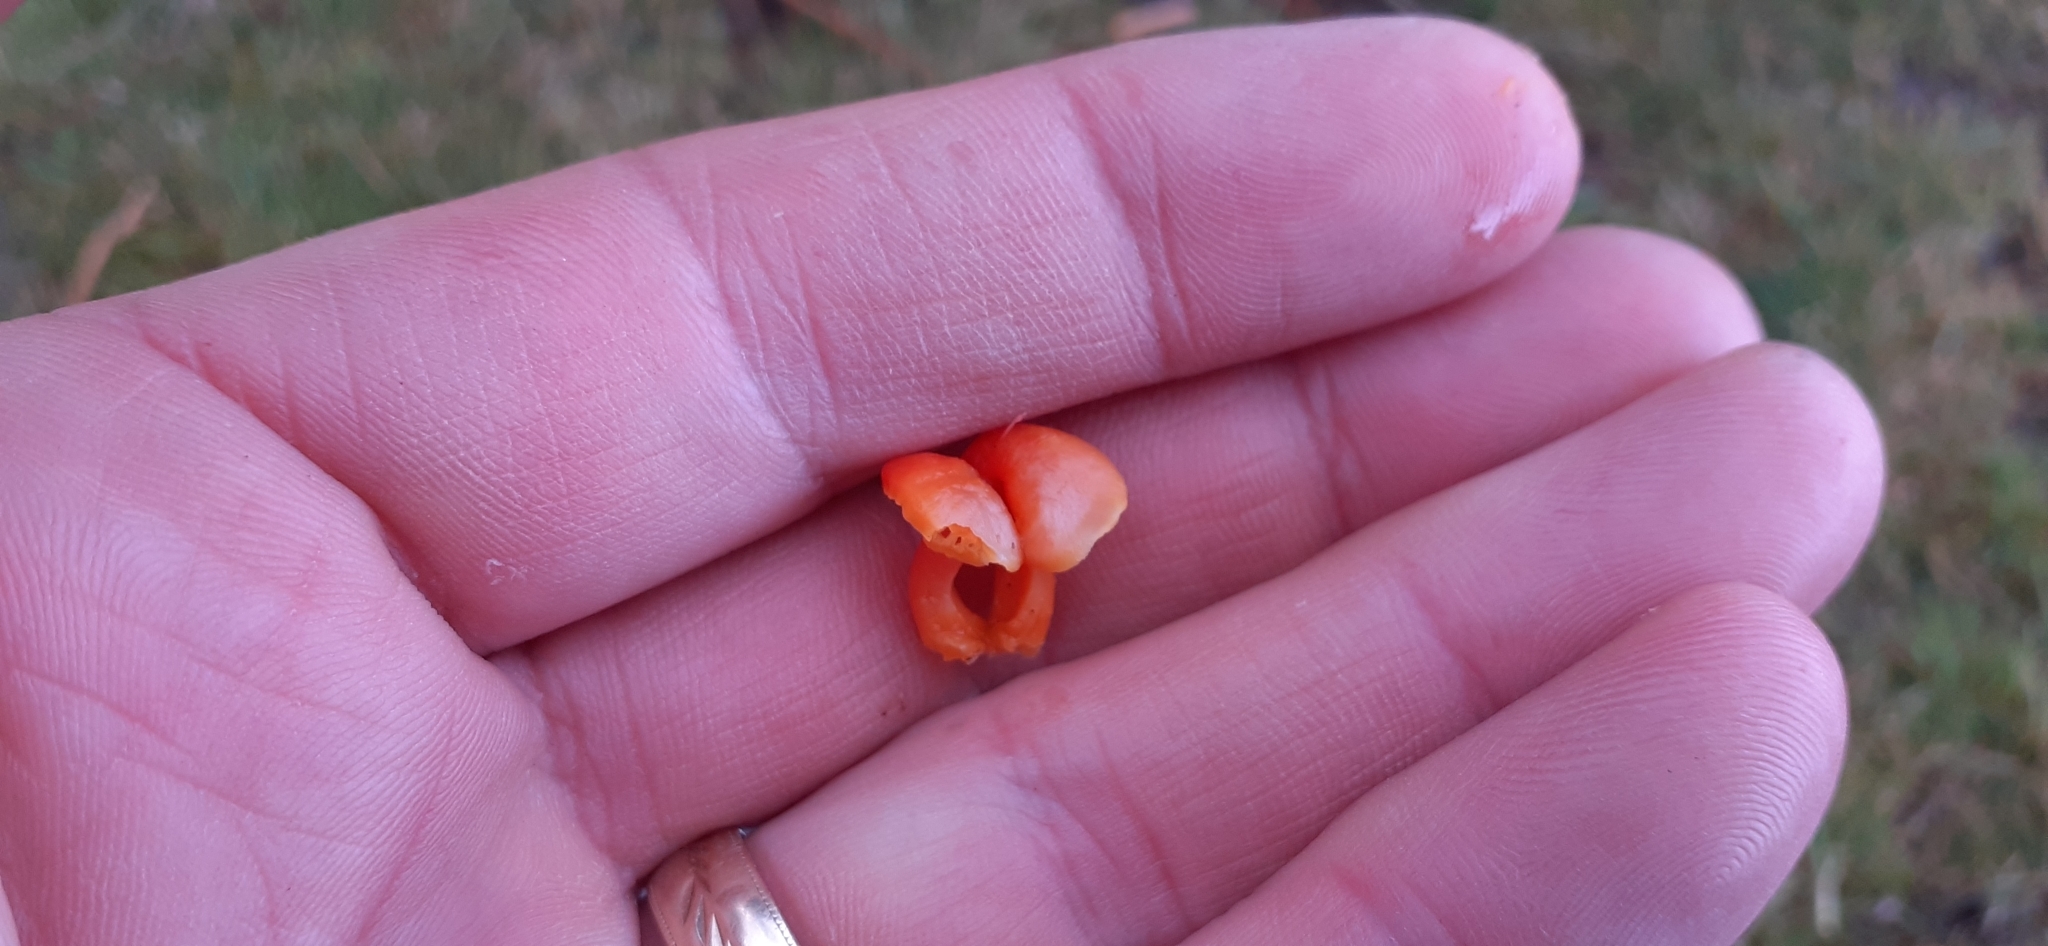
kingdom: Fungi
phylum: Basidiomycota
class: Agaricomycetes
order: Agaricales
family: Hygrophoraceae
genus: Hygrocybe
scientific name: Hygrocybe reidii
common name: Honey waxcap
